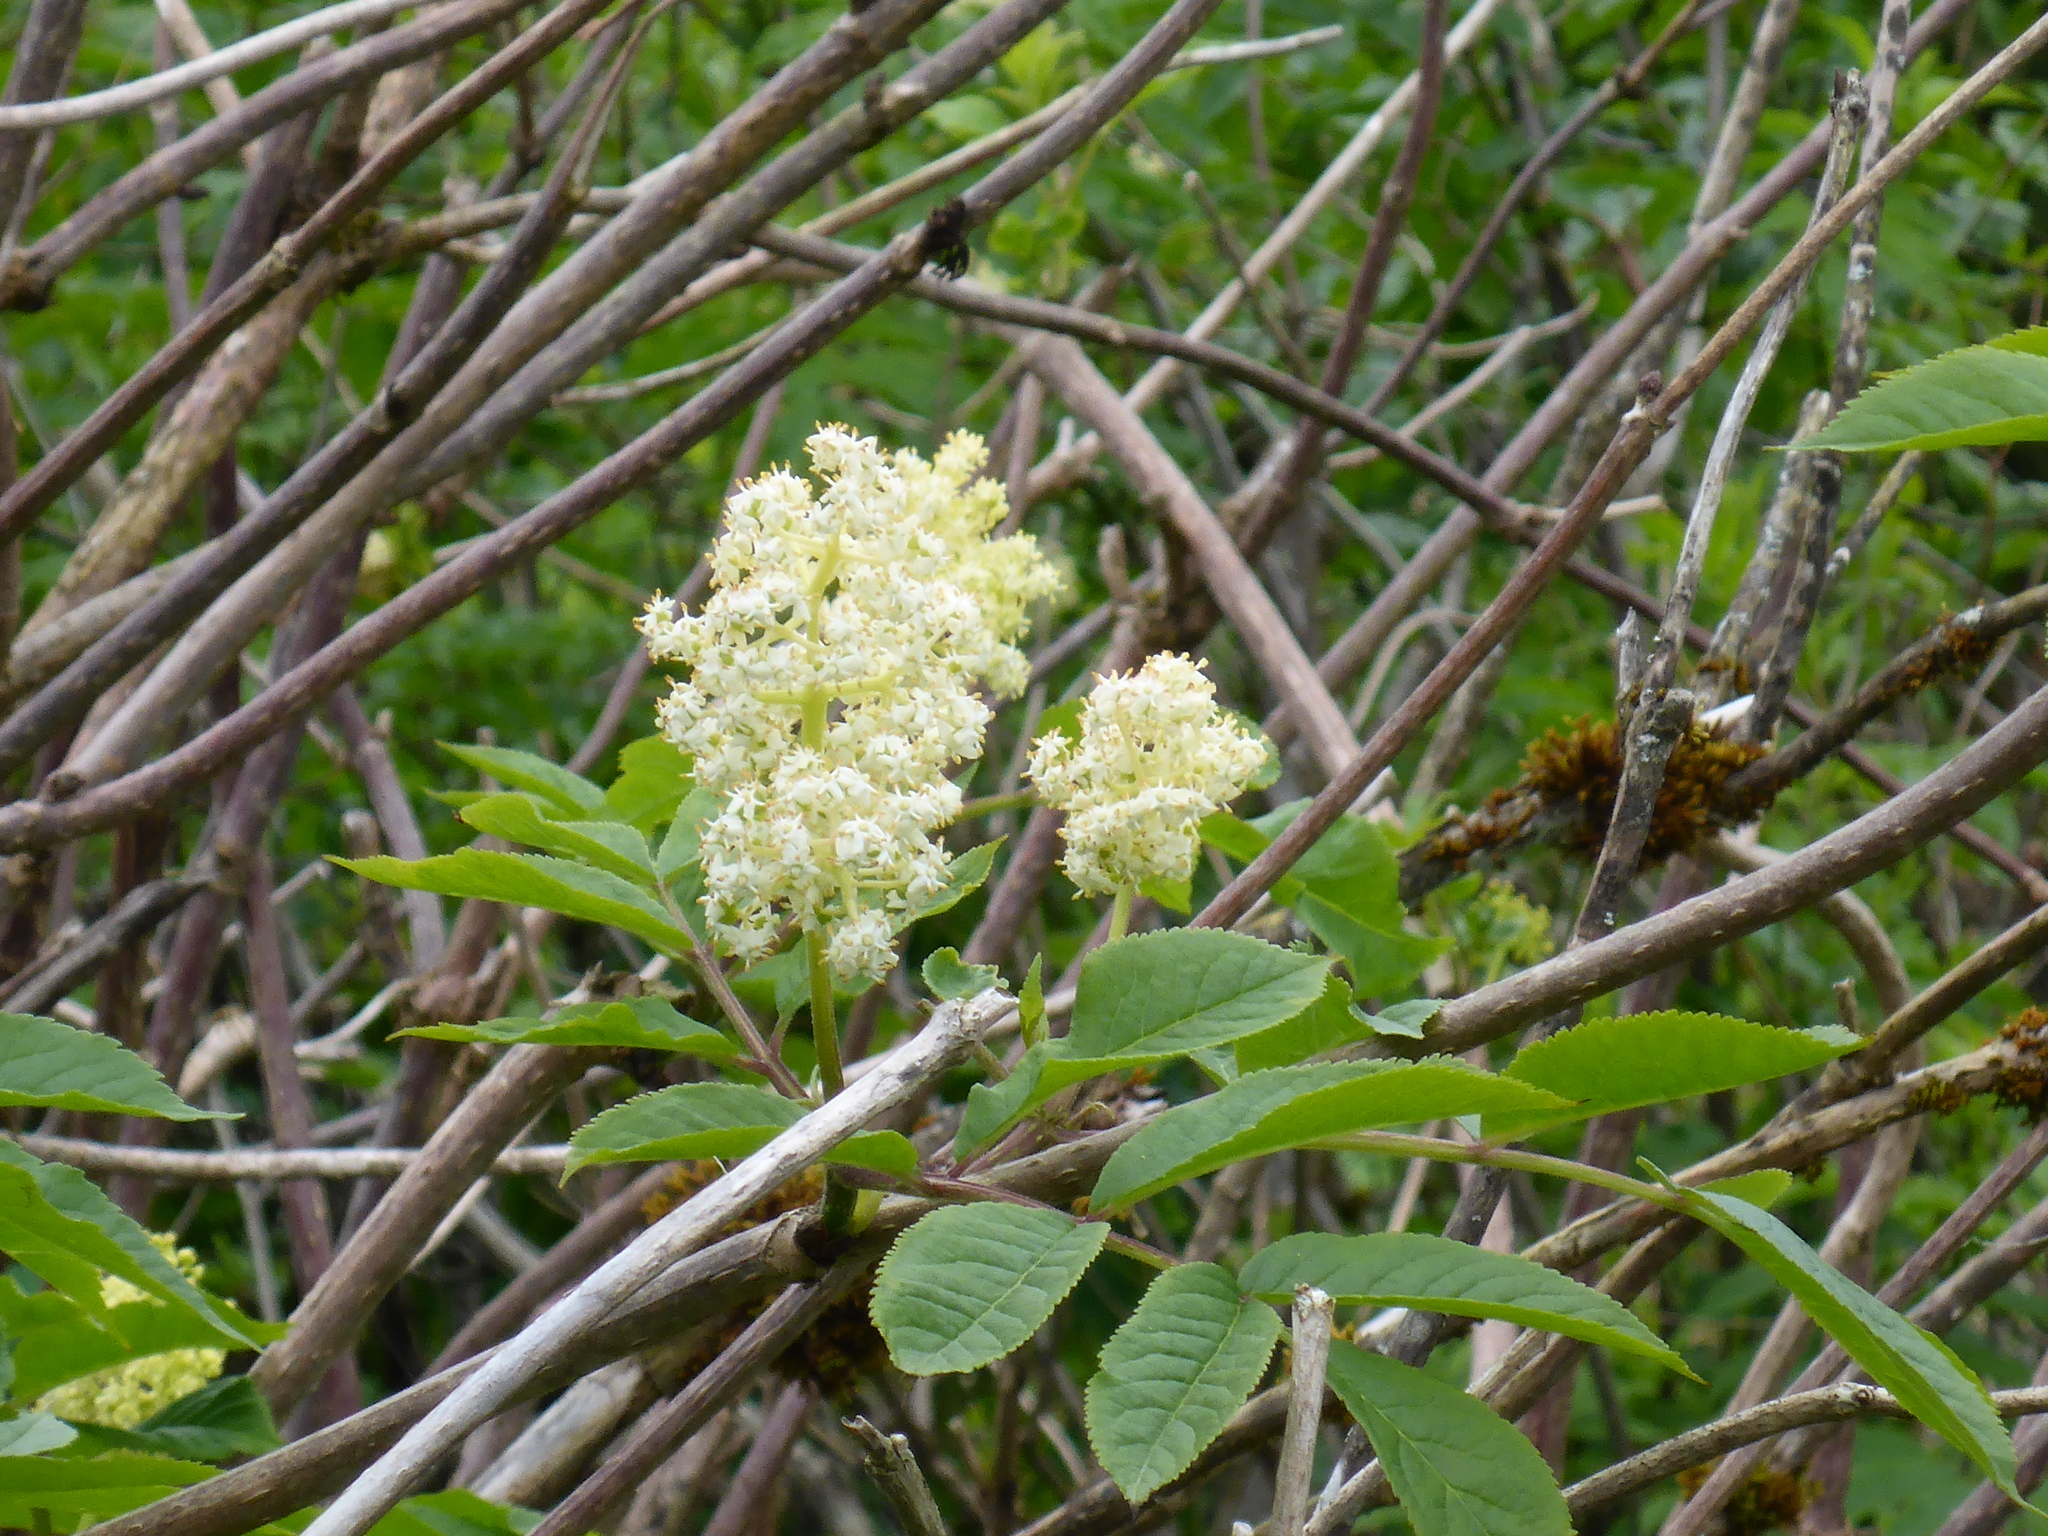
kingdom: Plantae
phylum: Tracheophyta
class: Magnoliopsida
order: Dipsacales
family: Viburnaceae
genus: Sambucus
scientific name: Sambucus racemosa
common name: Red-berried elder
